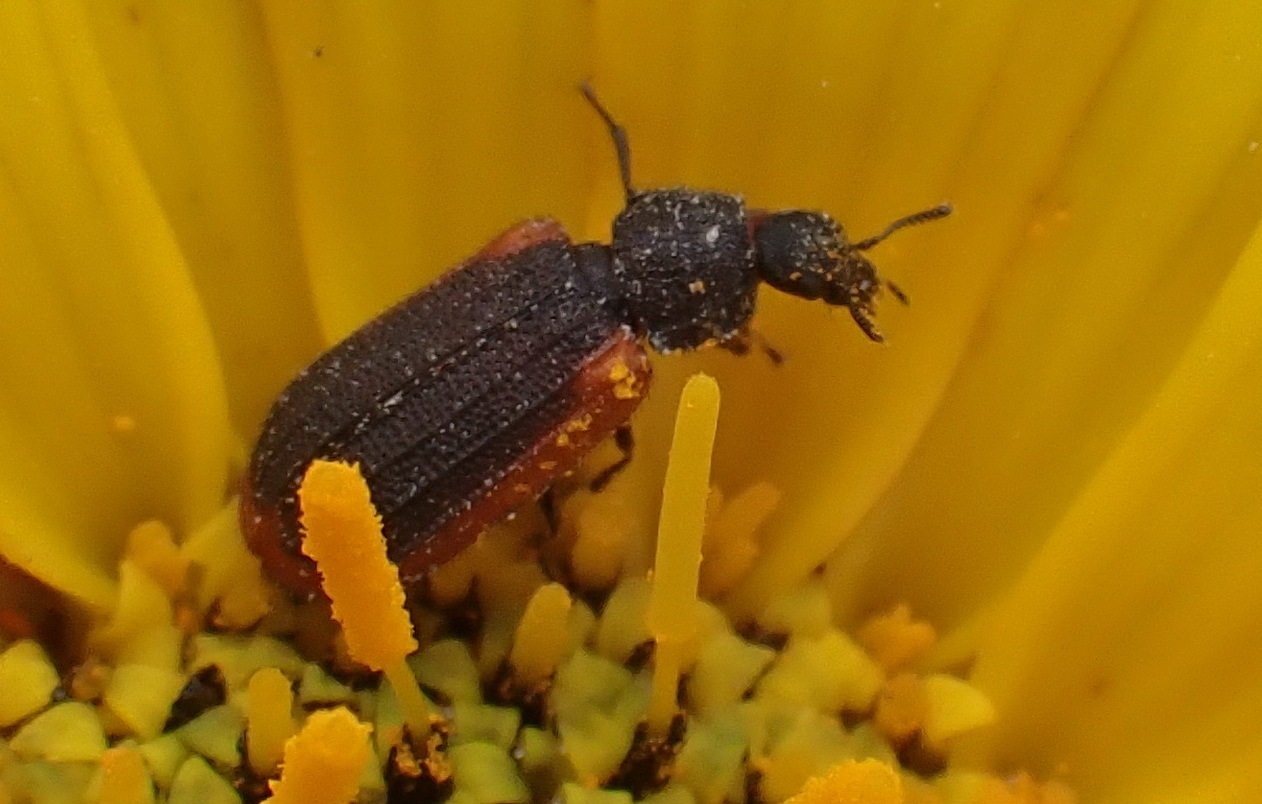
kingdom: Animalia
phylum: Arthropoda
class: Insecta
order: Coleoptera
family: Melyridae
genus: Melyris
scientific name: Melyris
